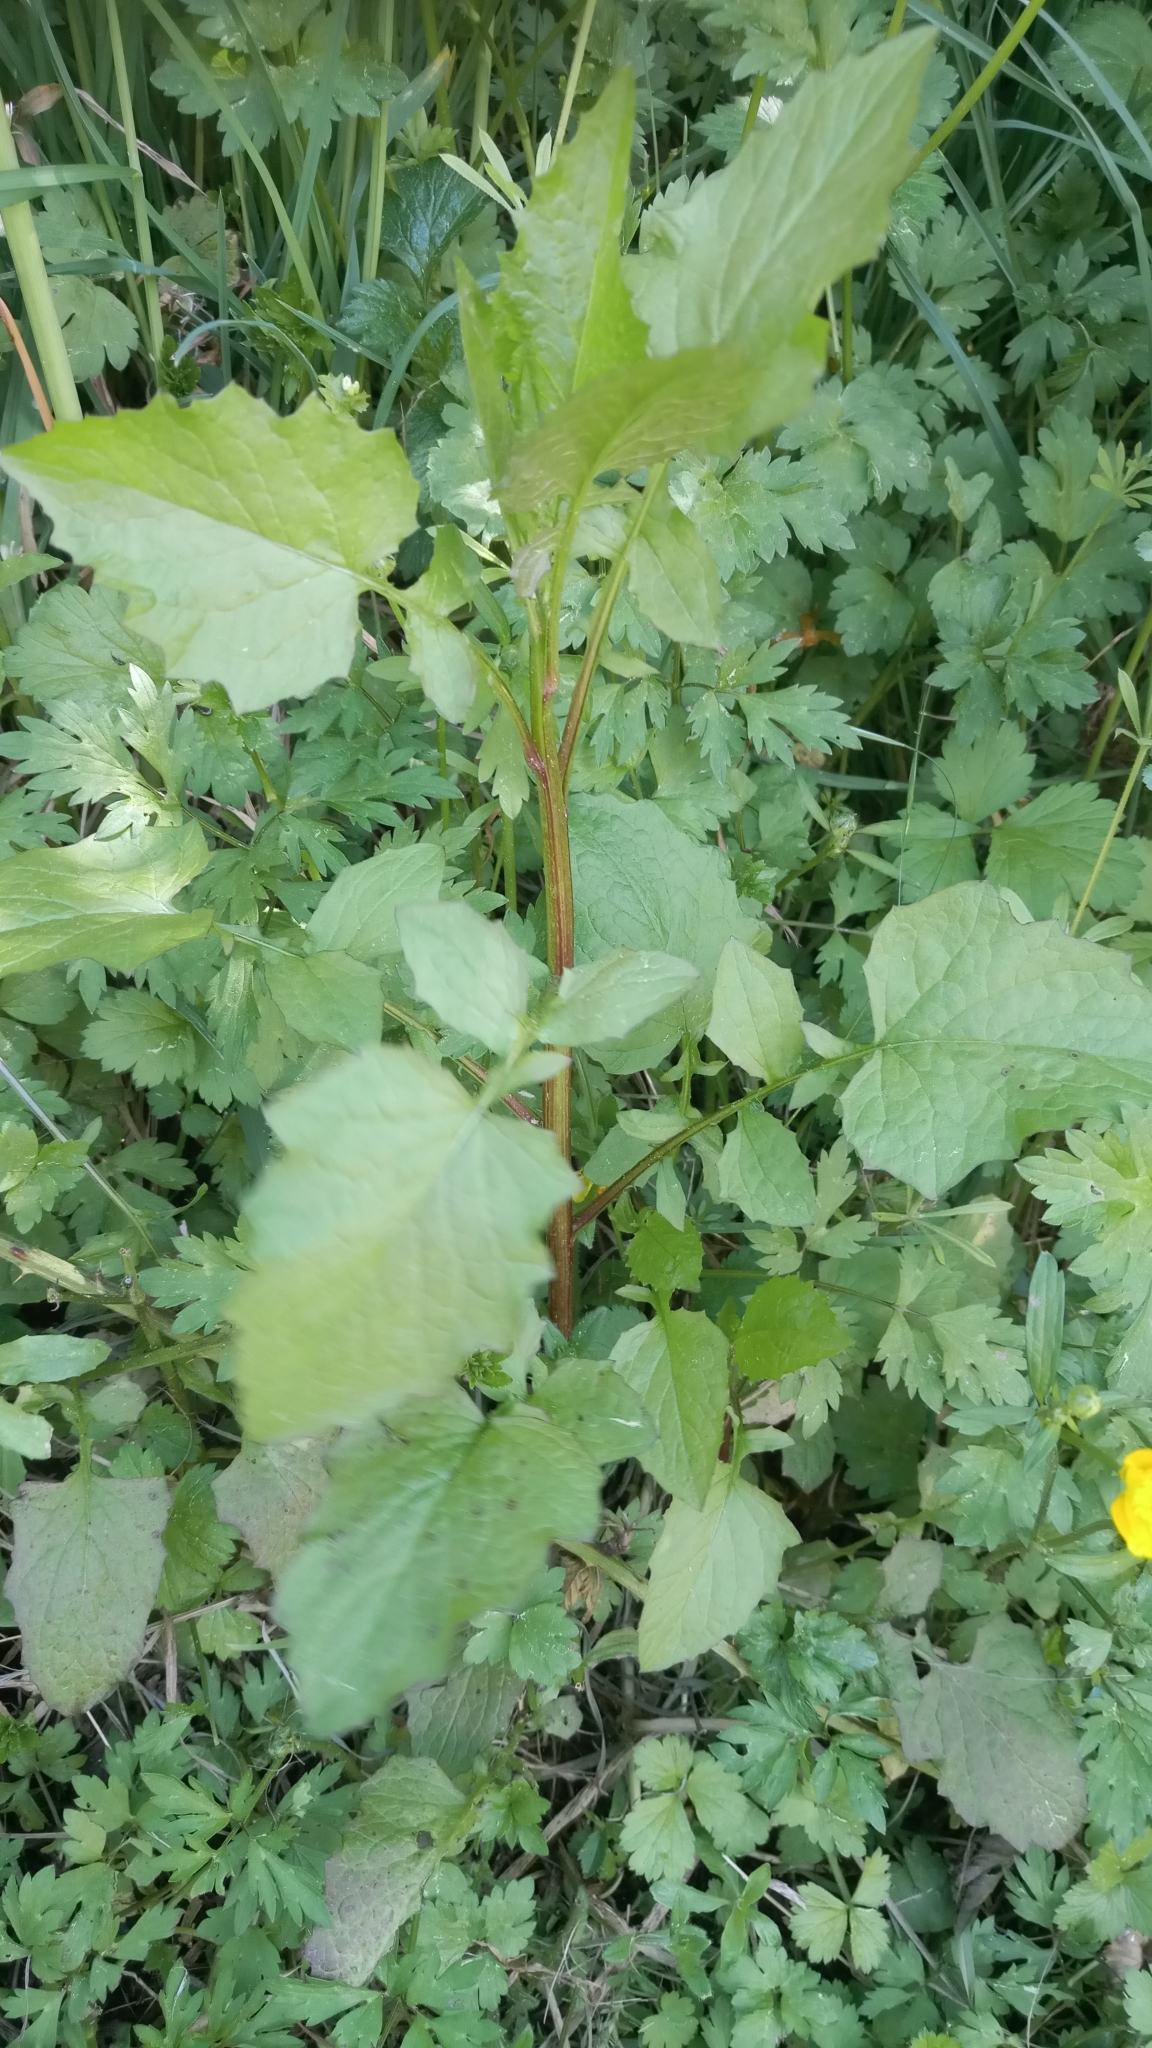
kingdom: Plantae
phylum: Tracheophyta
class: Magnoliopsida
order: Asterales
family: Asteraceae
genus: Lapsana
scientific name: Lapsana communis
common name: Nipplewort
